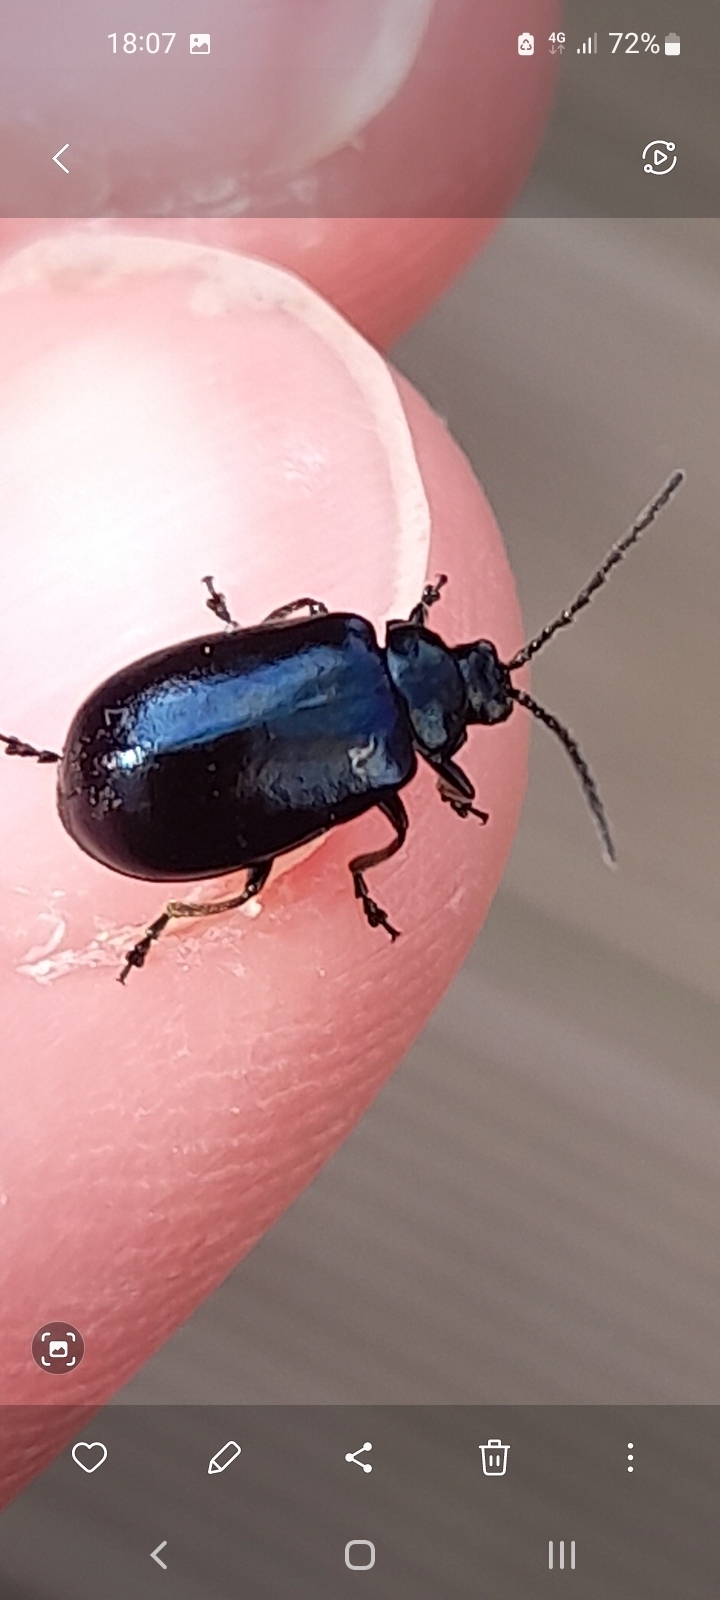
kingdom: Animalia
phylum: Arthropoda
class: Insecta
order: Coleoptera
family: Chrysomelidae
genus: Agelastica
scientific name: Agelastica alni
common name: Alder leaf beetle
